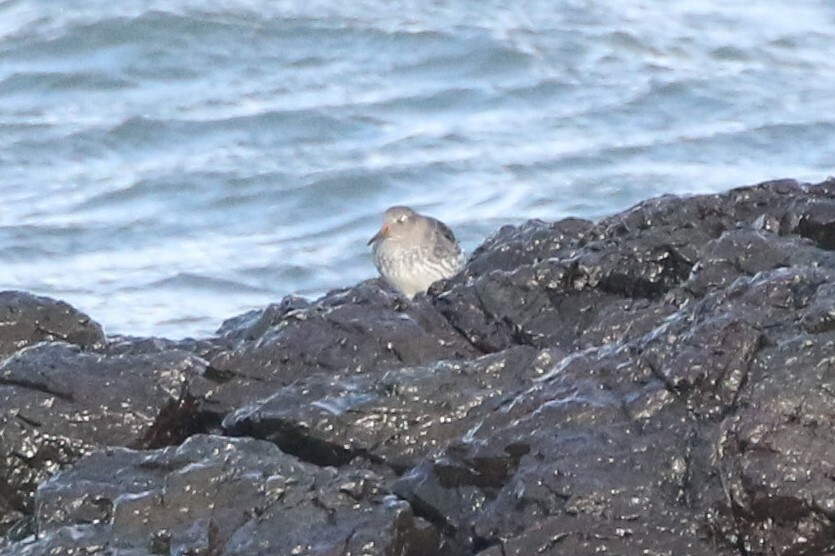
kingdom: Animalia
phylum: Chordata
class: Aves
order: Charadriiformes
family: Scolopacidae
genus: Calidris
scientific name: Calidris maritima
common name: Purple sandpiper
